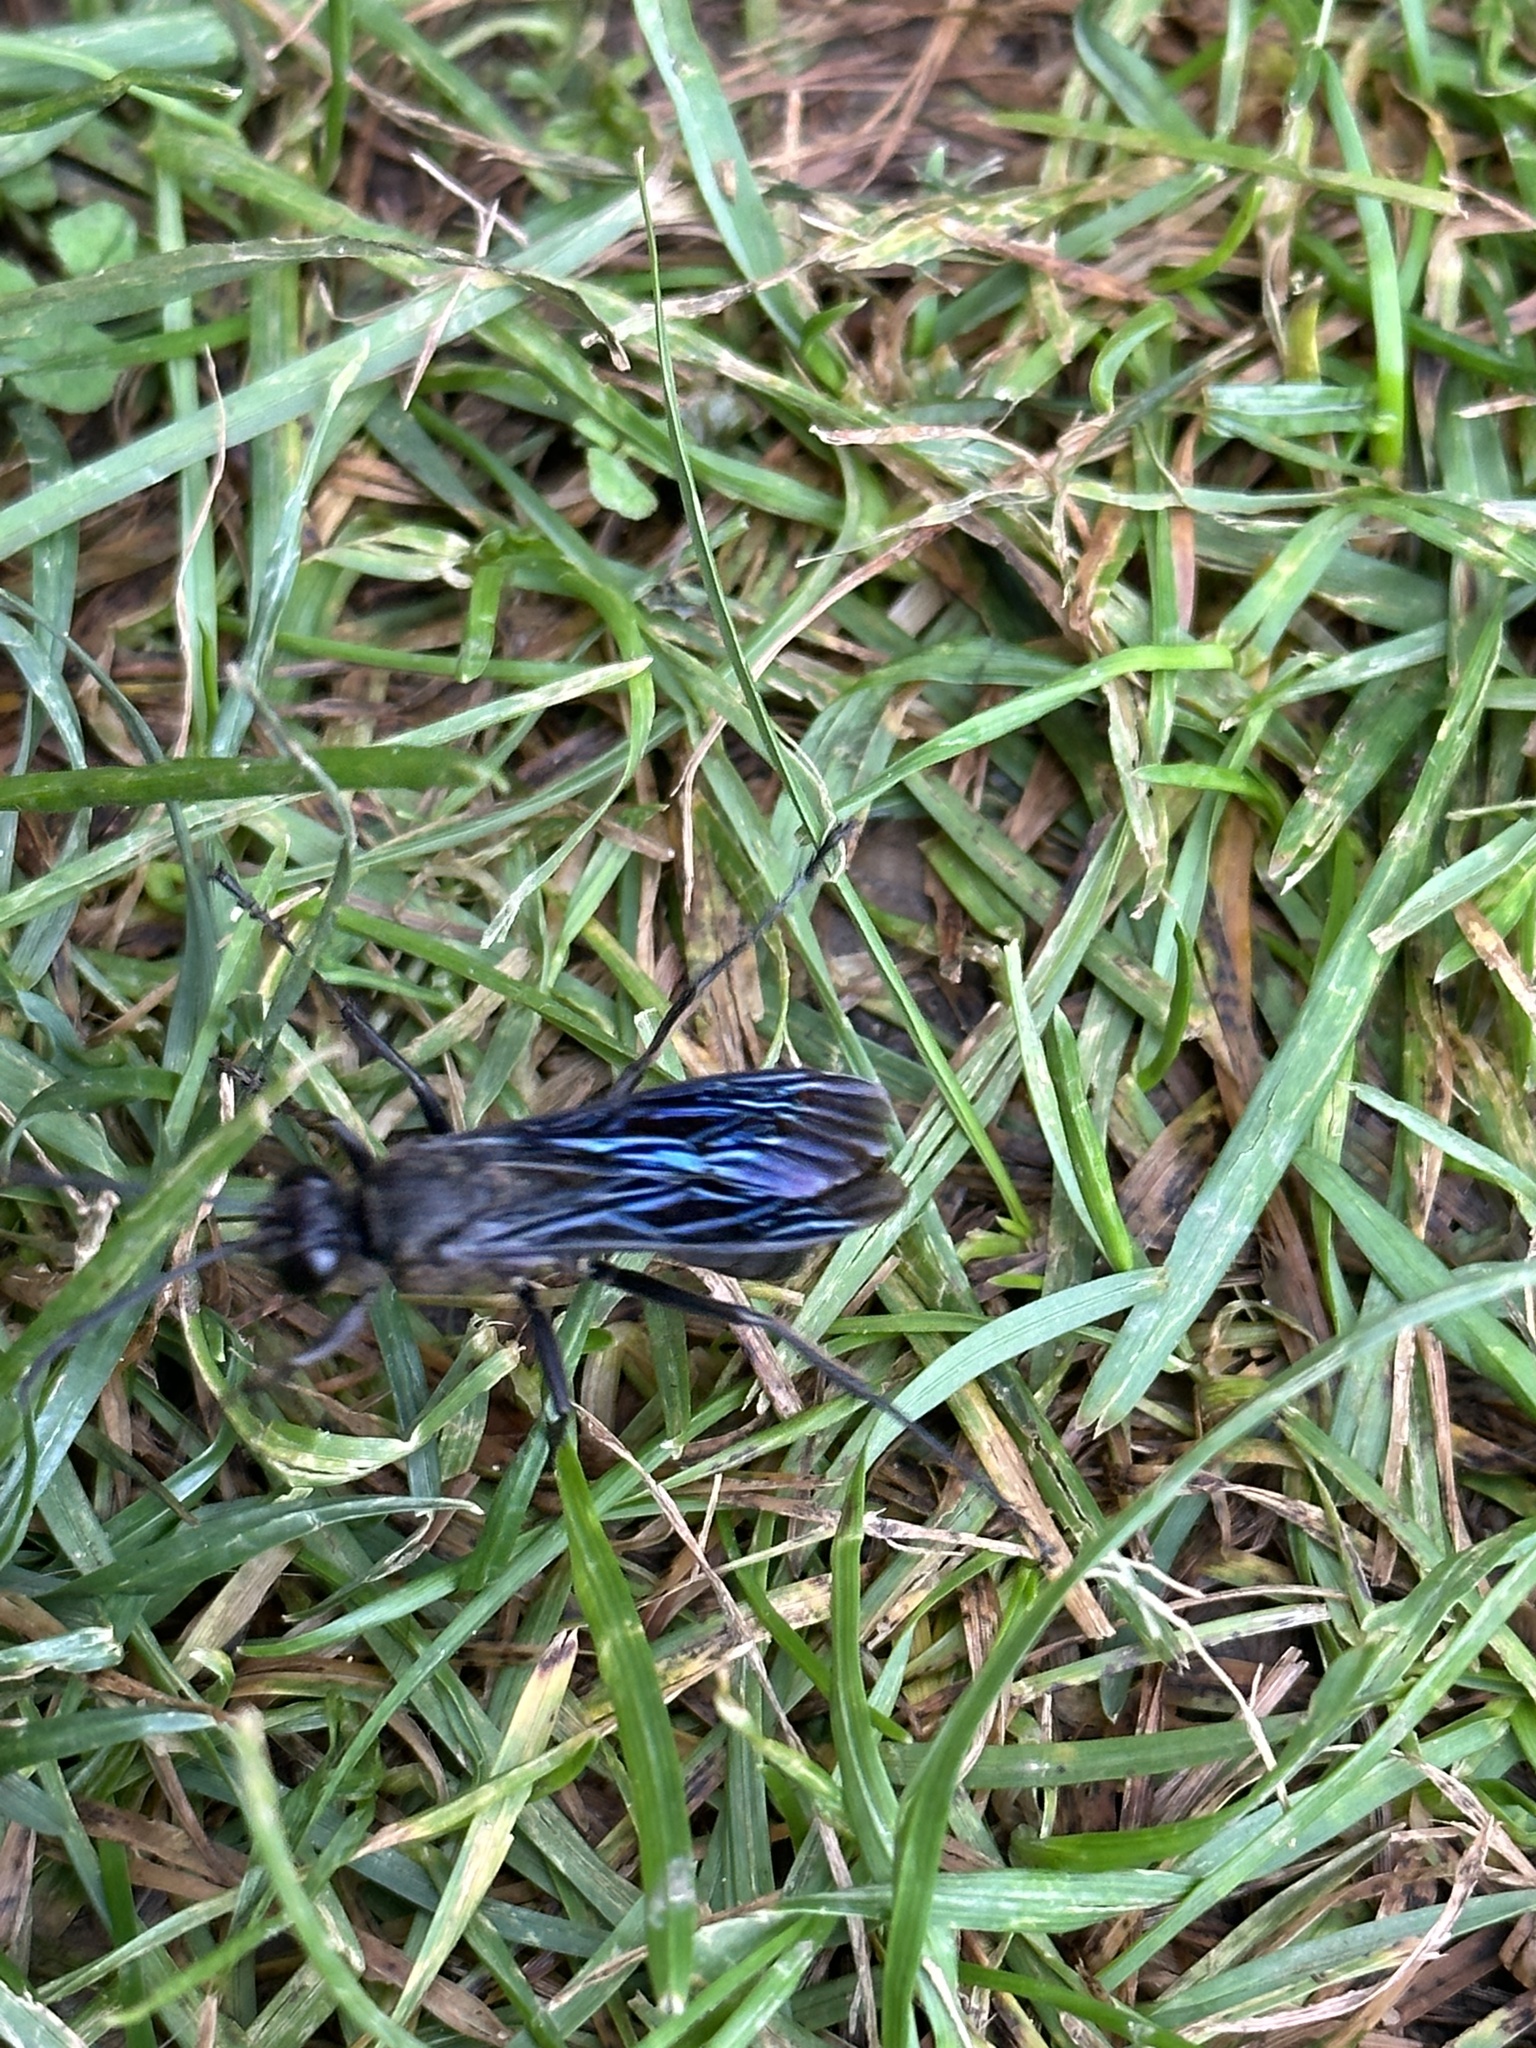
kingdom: Animalia
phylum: Arthropoda
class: Insecta
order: Hymenoptera
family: Sphecidae
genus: Sphex
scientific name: Sphex pensylvanicus
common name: Great black digger wasp
